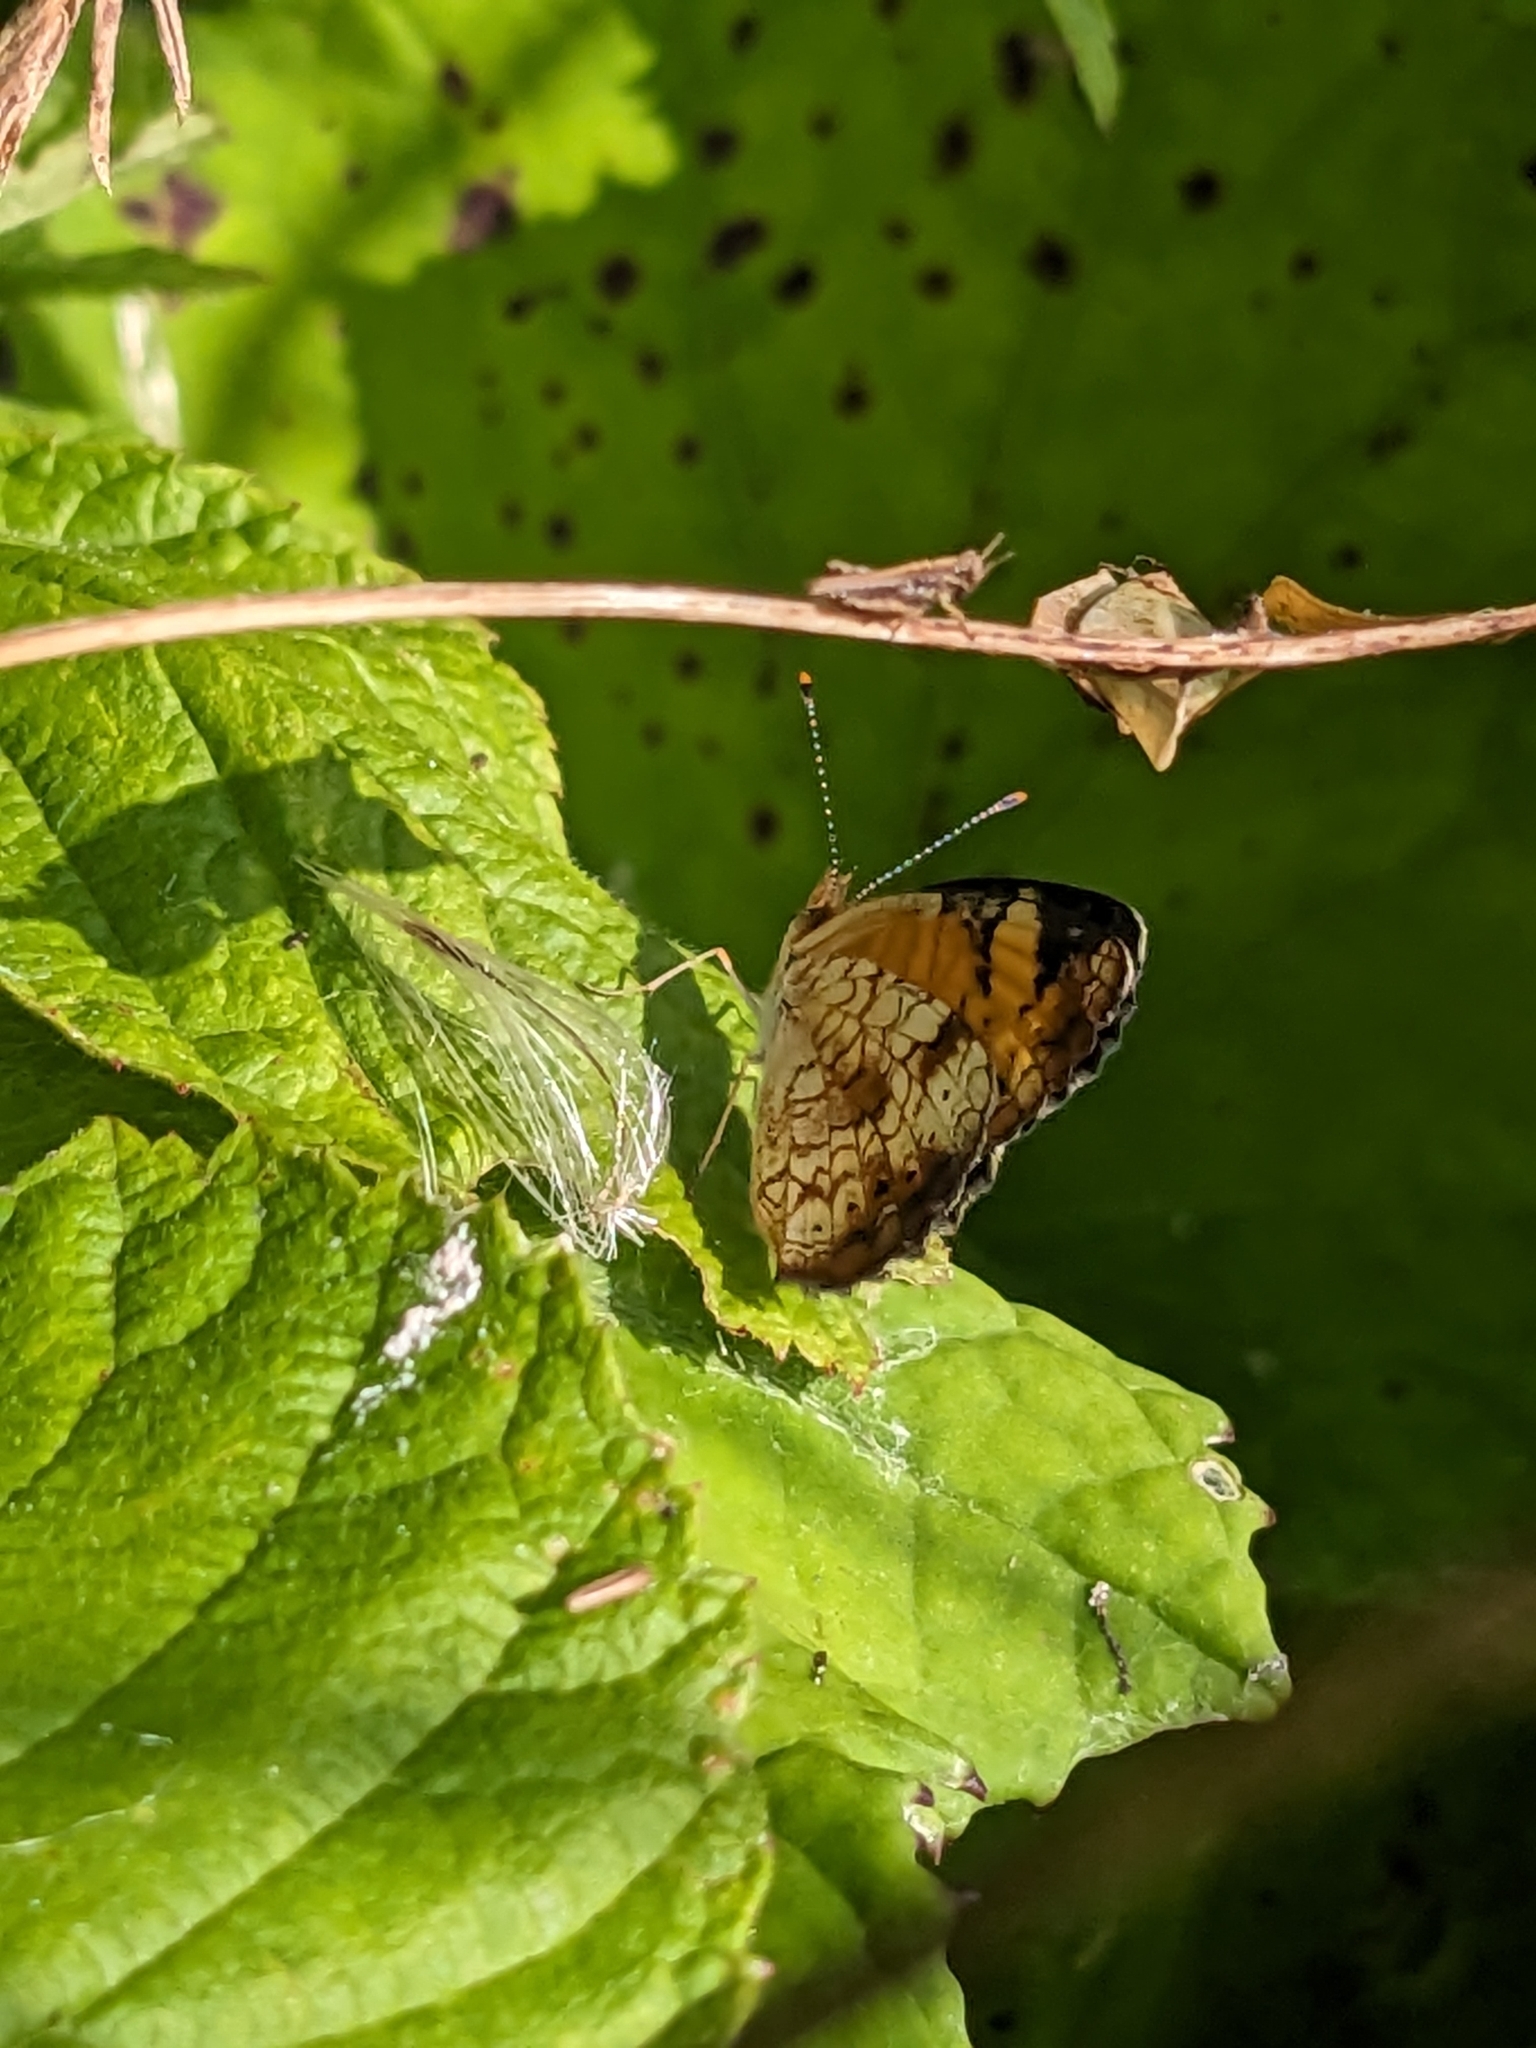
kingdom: Animalia
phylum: Arthropoda
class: Insecta
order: Lepidoptera
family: Nymphalidae
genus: Phyciodes
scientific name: Phyciodes tharos
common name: Pearl crescent
